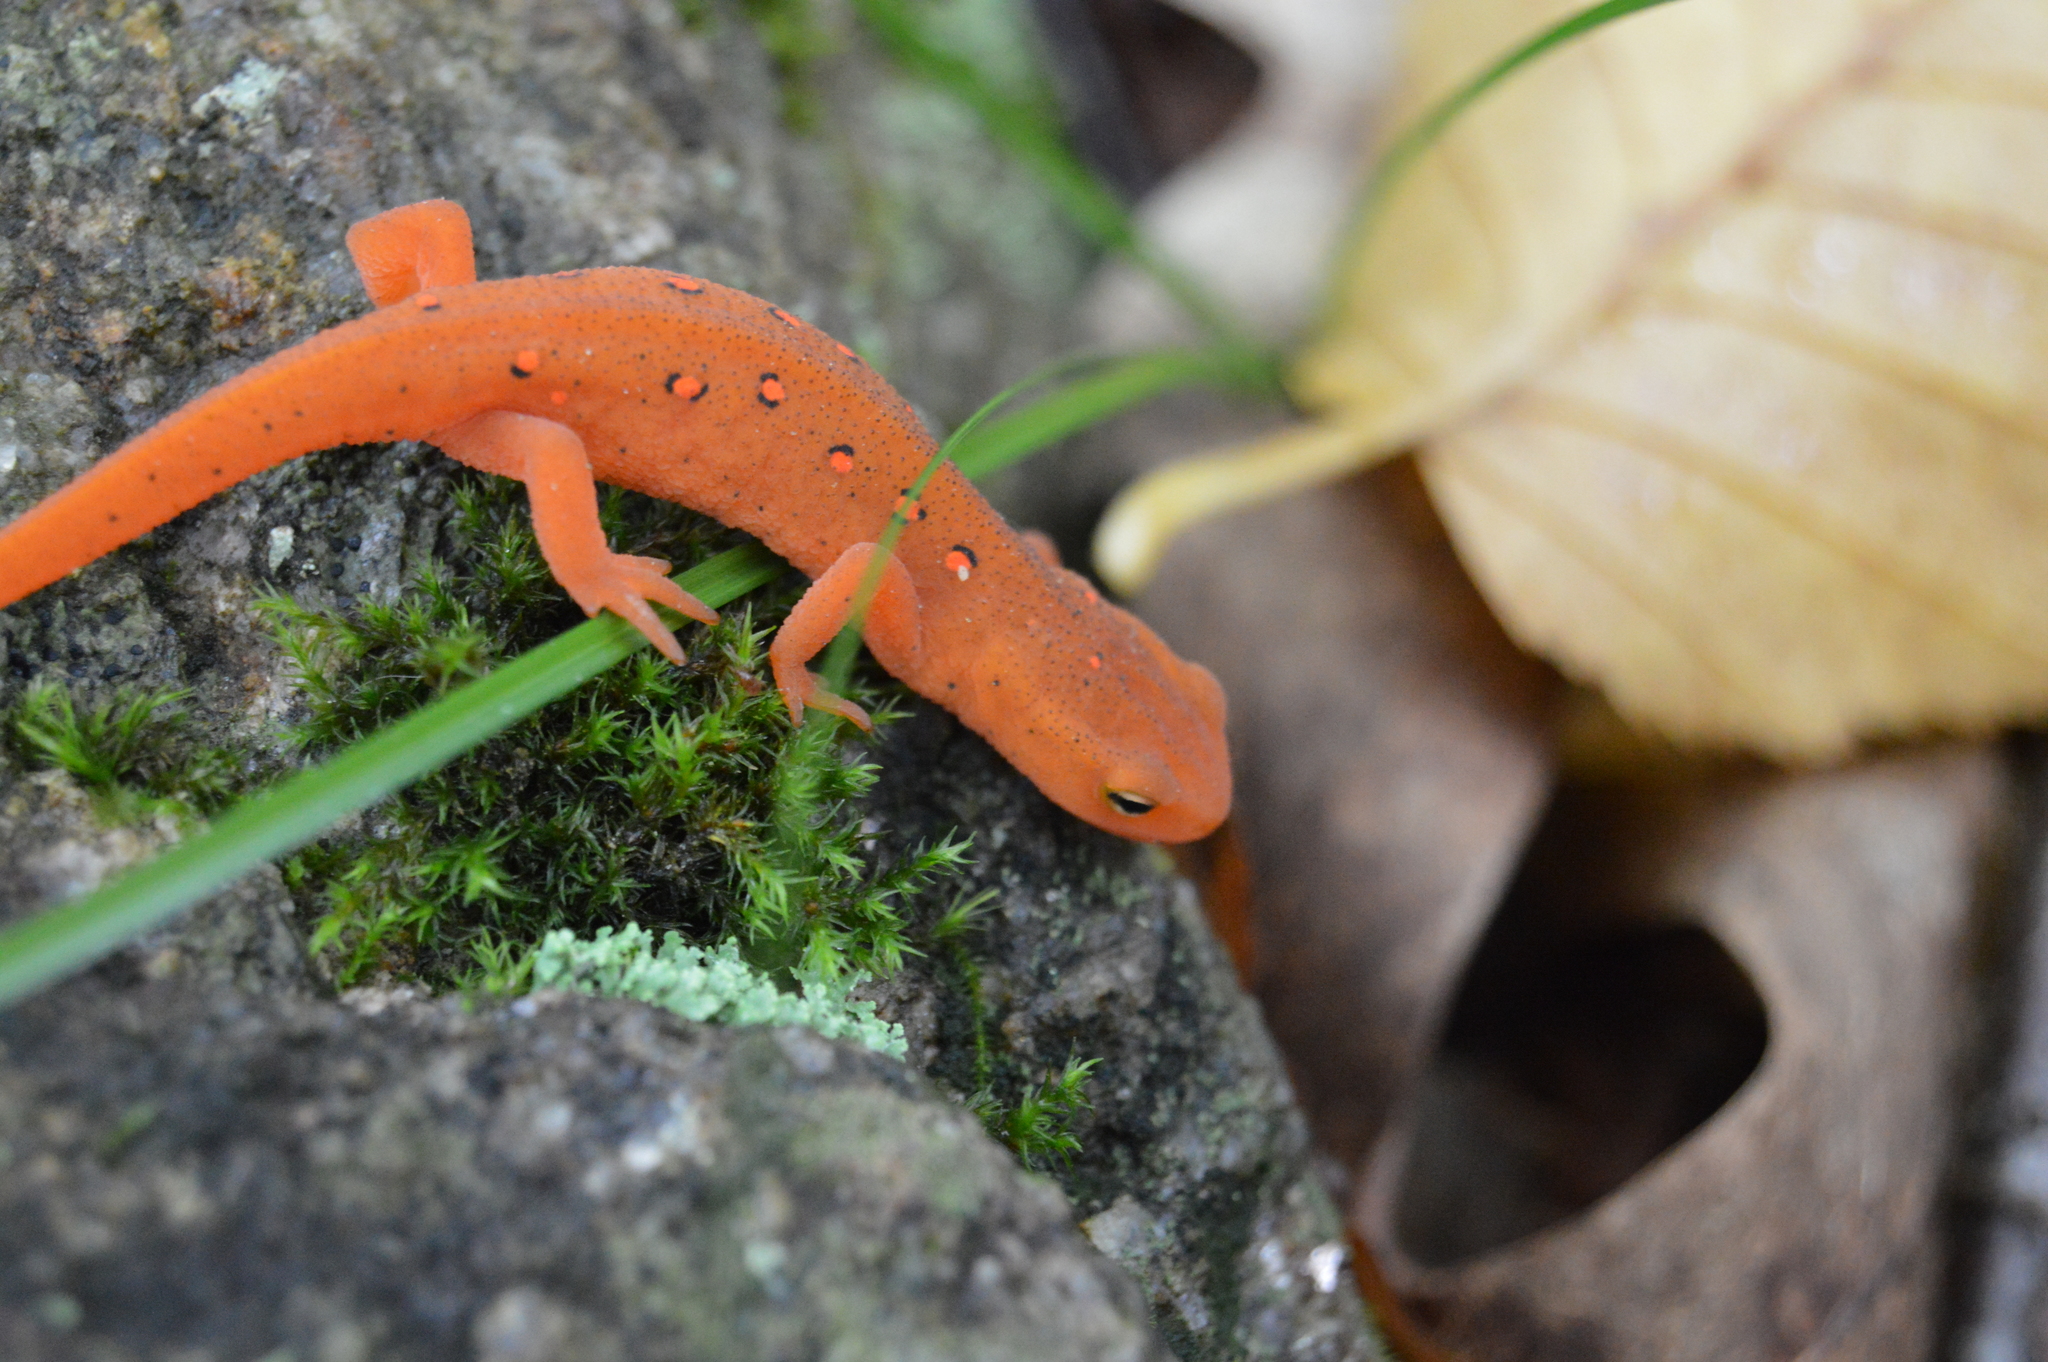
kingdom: Animalia
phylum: Chordata
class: Amphibia
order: Caudata
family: Salamandridae
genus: Notophthalmus
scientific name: Notophthalmus viridescens
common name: Eastern newt
